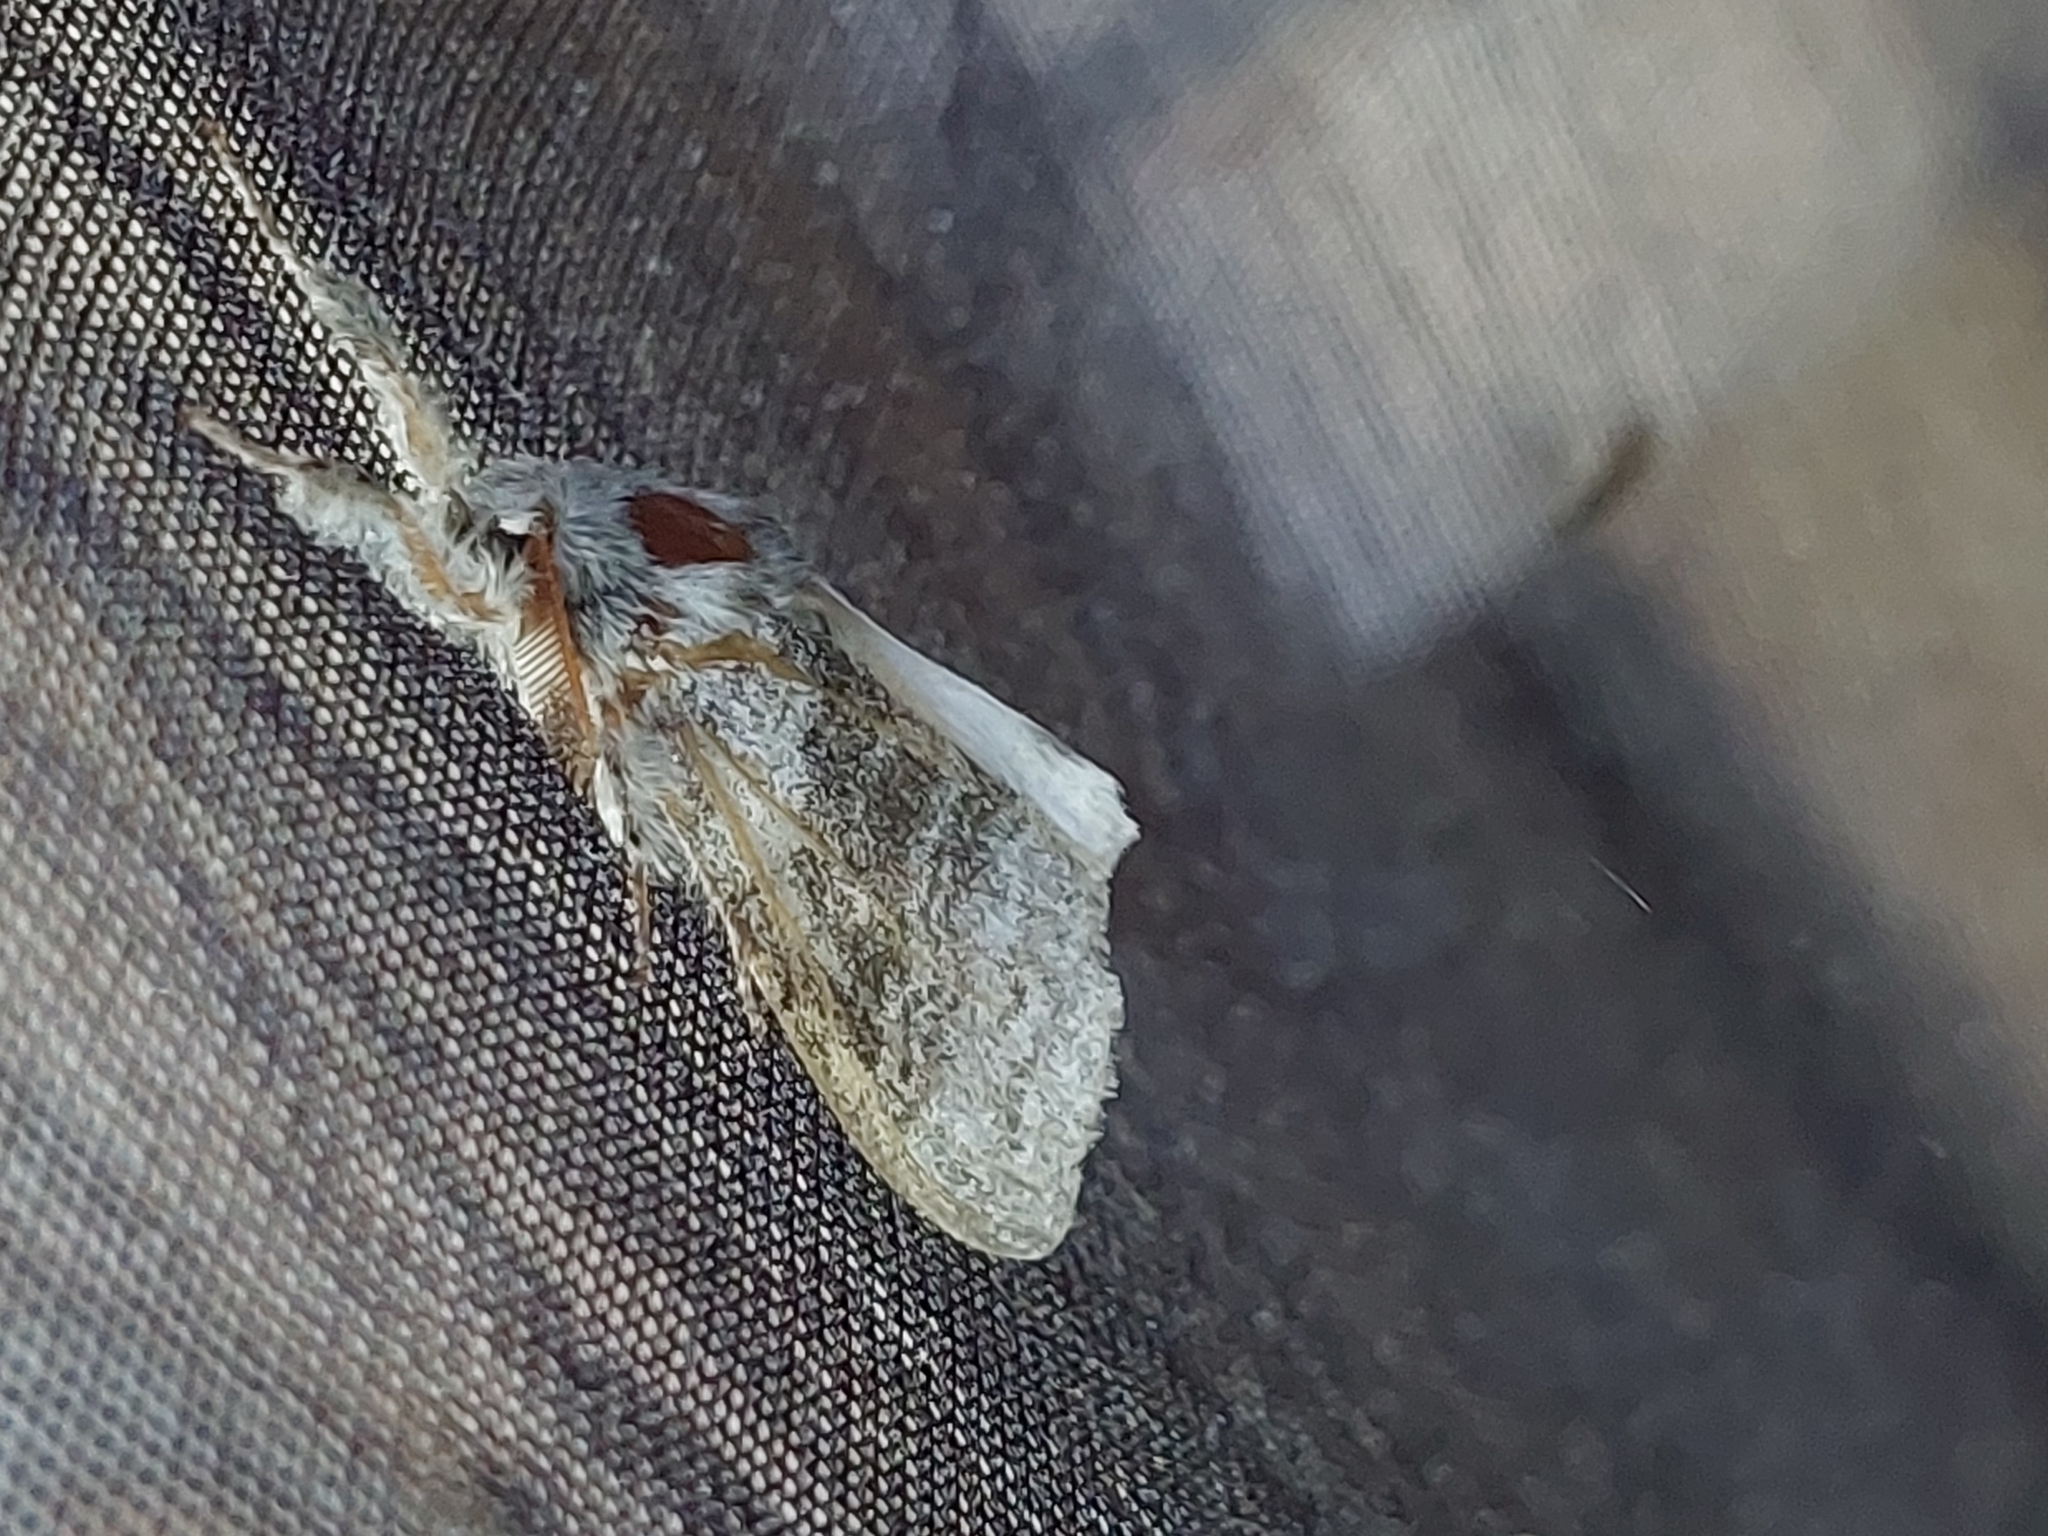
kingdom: Animalia
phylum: Arthropoda
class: Insecta
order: Lepidoptera
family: Erebidae
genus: Calliteara
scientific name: Calliteara pudibunda
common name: Pale tussock
